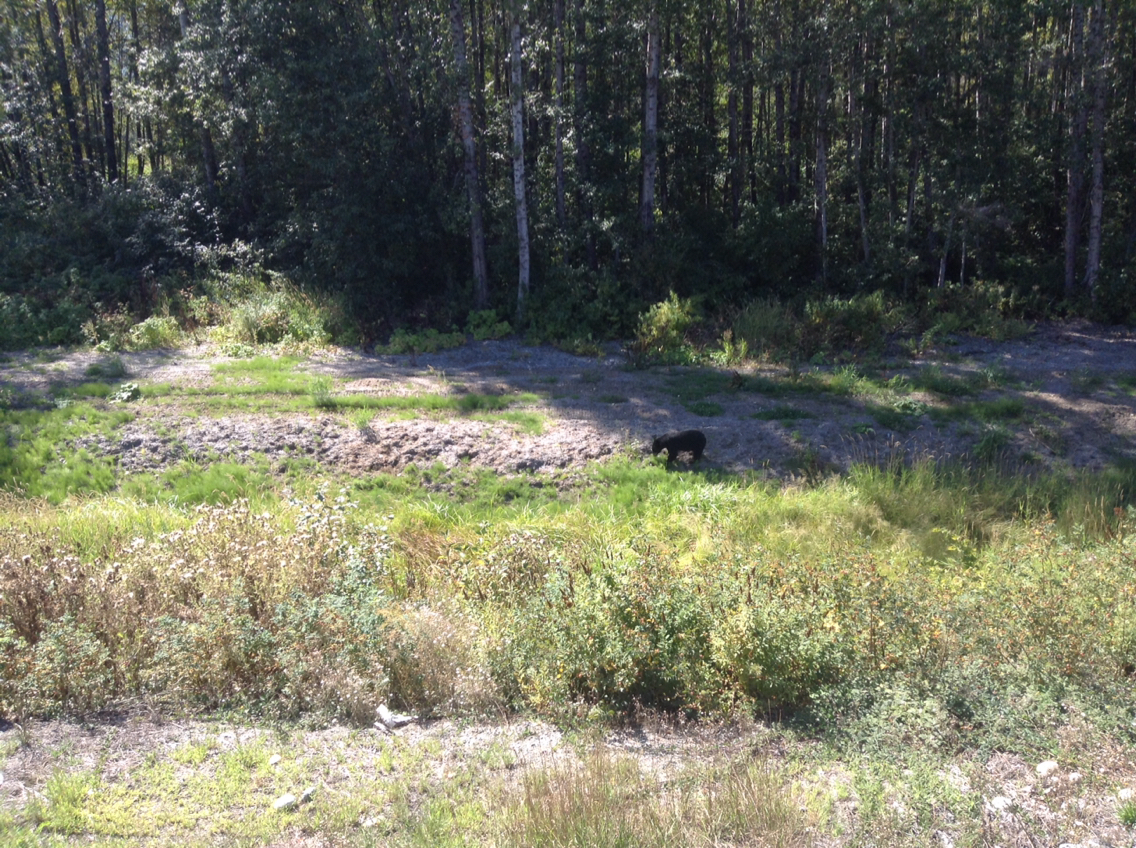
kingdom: Animalia
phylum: Chordata
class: Mammalia
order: Carnivora
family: Ursidae
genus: Ursus
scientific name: Ursus americanus
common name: American black bear
